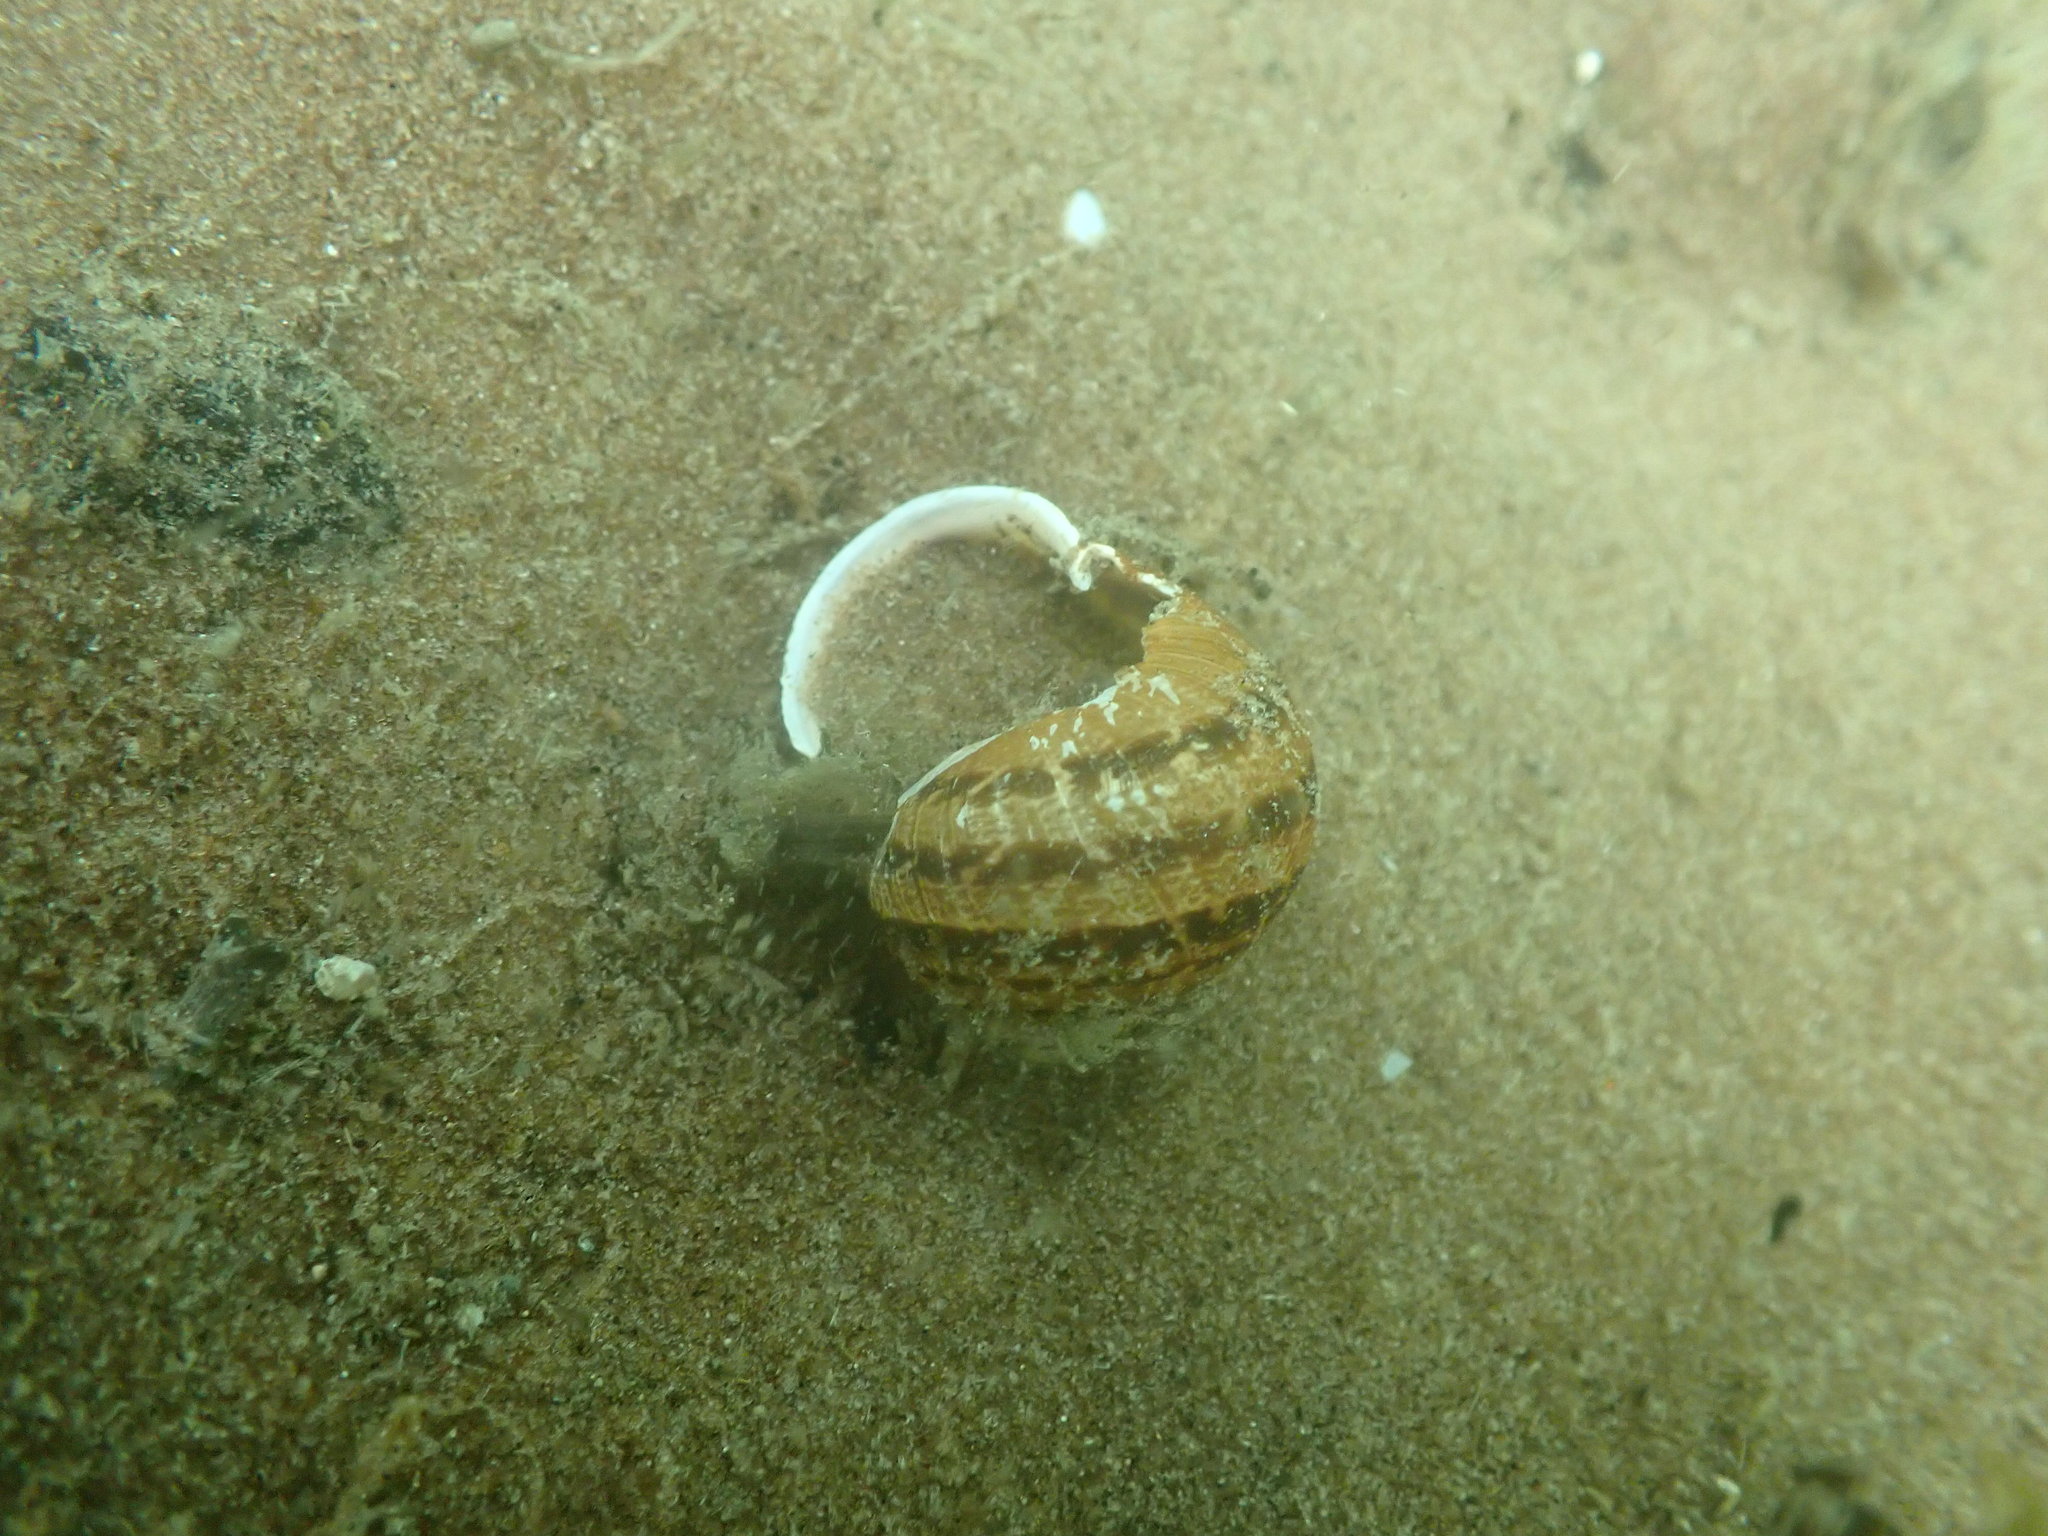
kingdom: Animalia
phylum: Mollusca
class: Gastropoda
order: Stylommatophora
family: Helicidae
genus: Cornu
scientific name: Cornu aspersum
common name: Brown garden snail
